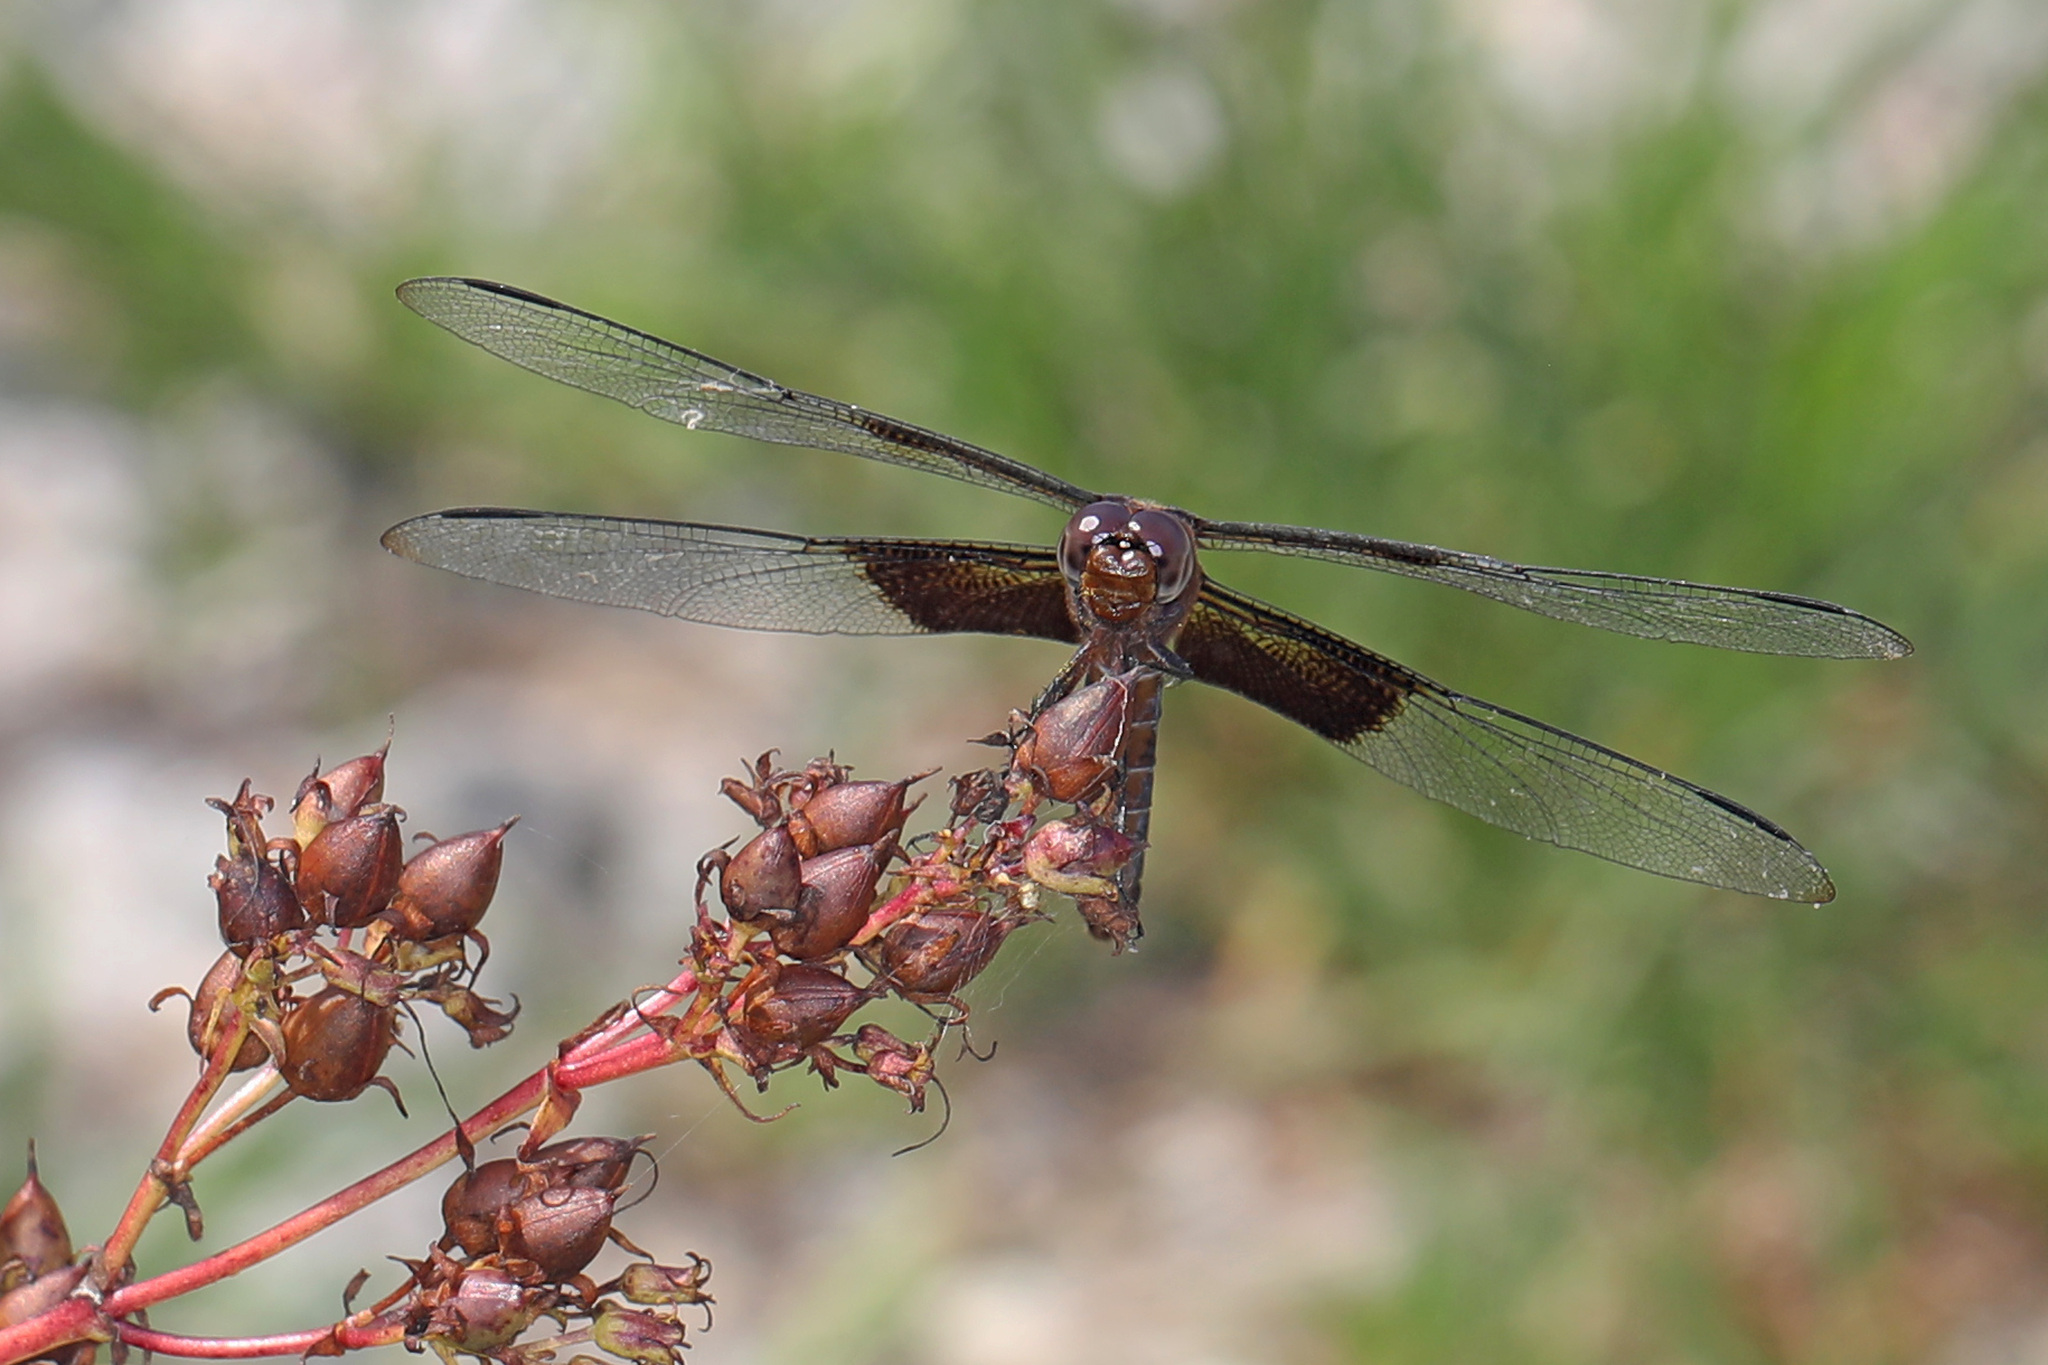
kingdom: Animalia
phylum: Arthropoda
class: Insecta
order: Odonata
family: Libellulidae
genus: Libellula
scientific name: Libellula luctuosa
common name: Widow skimmer
